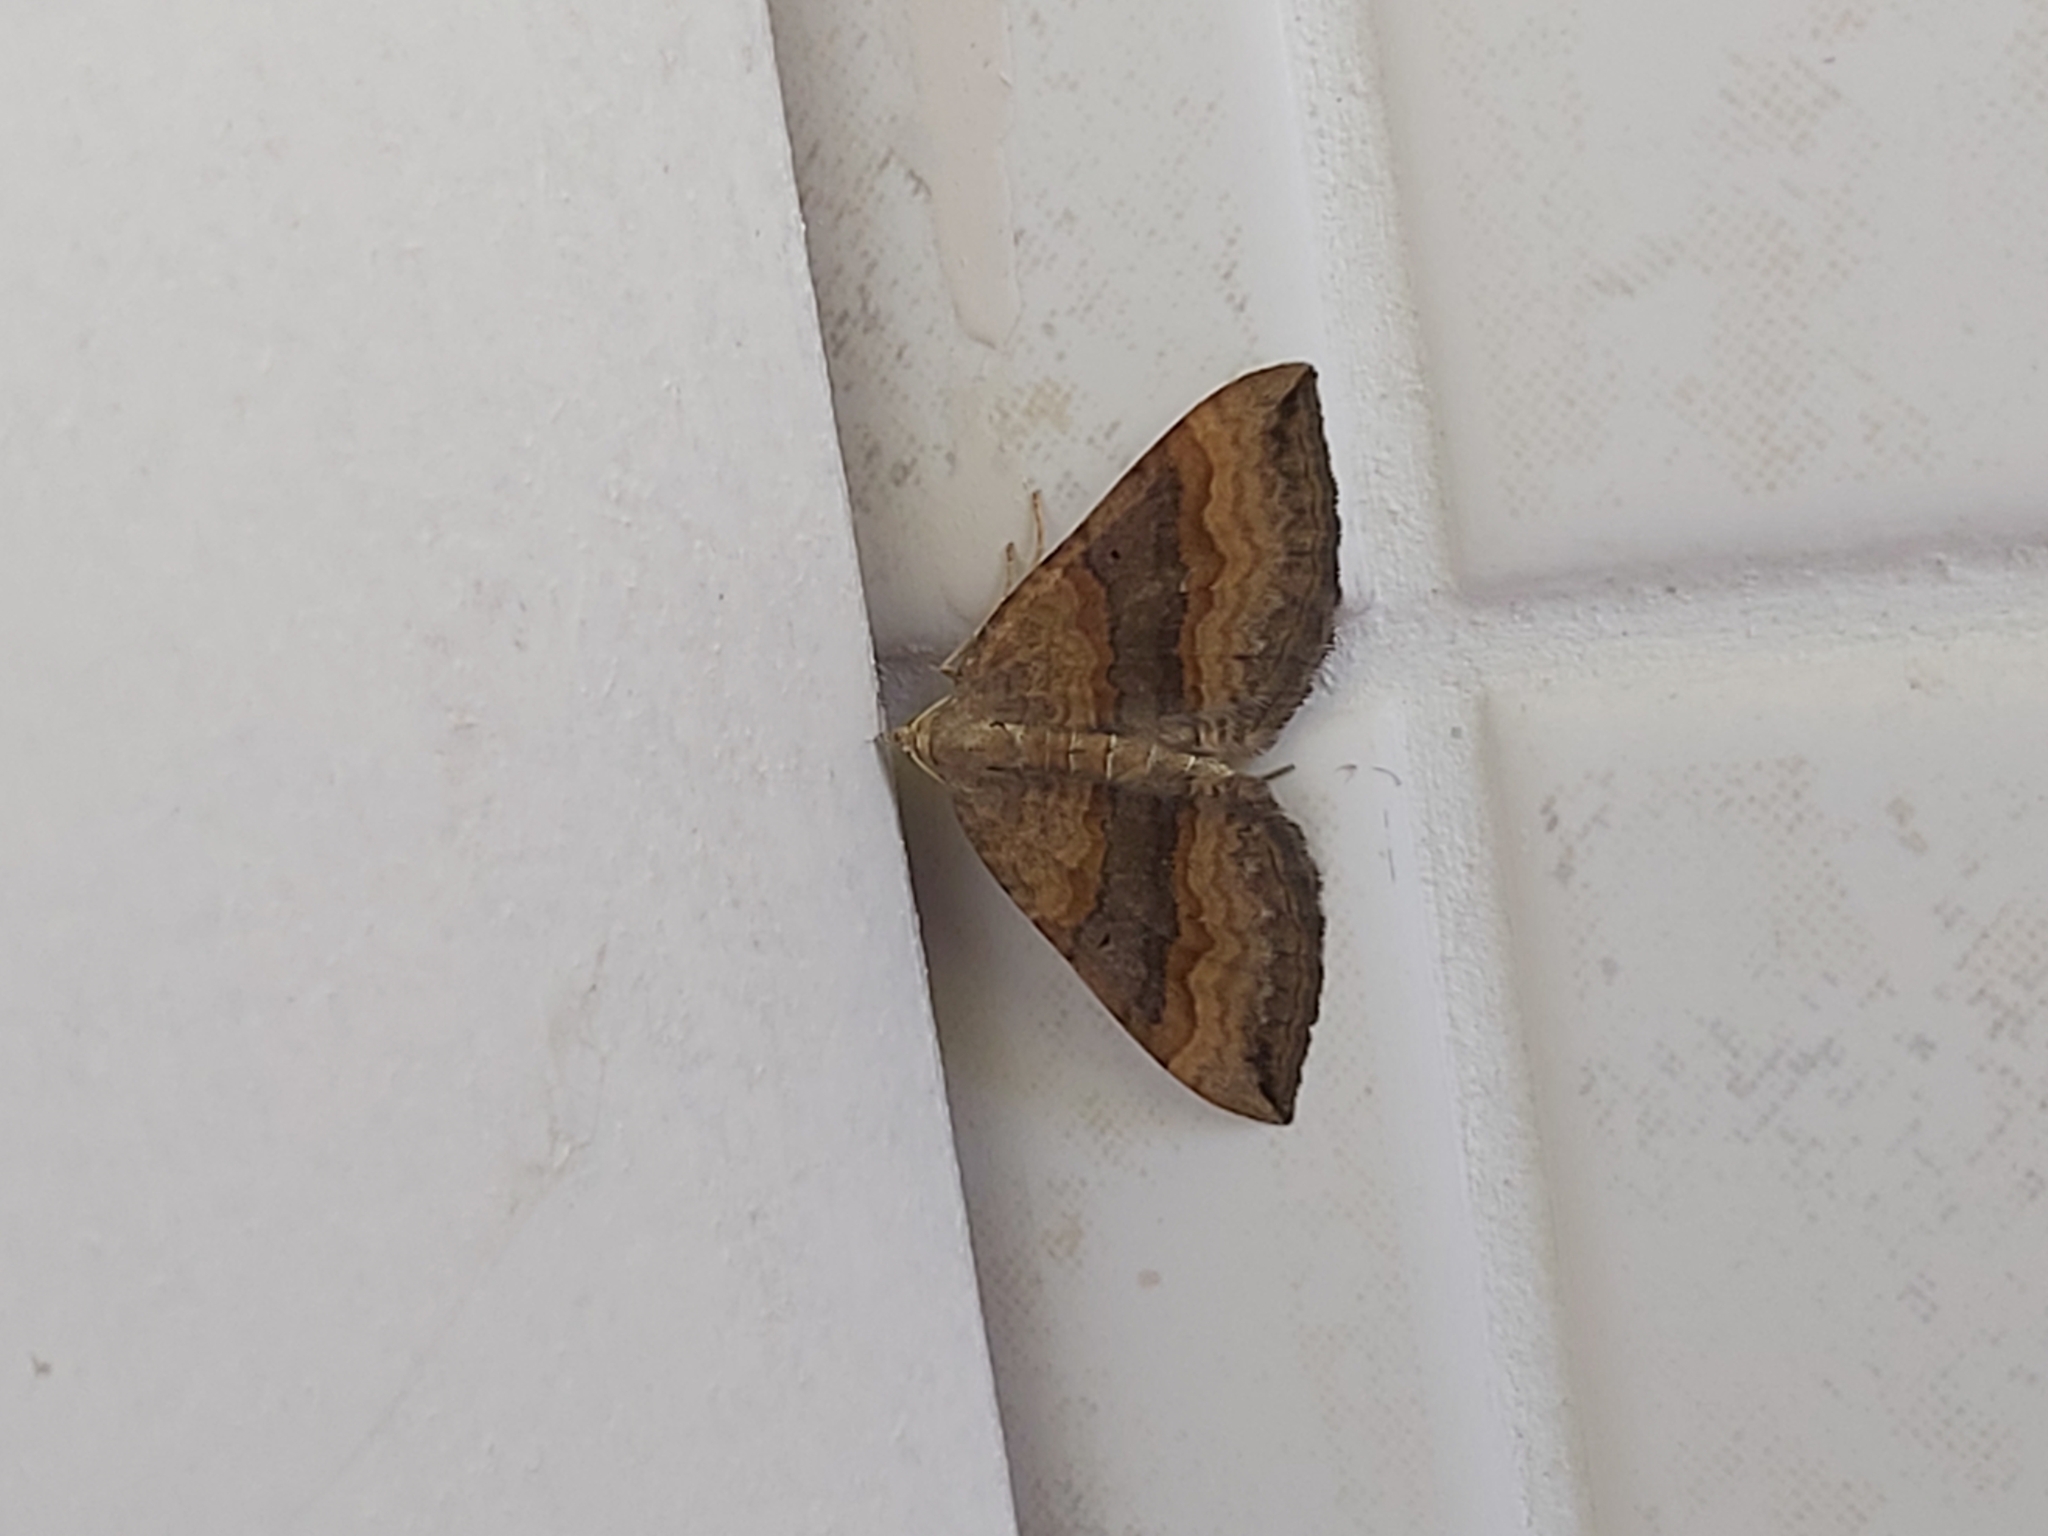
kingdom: Animalia
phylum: Arthropoda
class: Insecta
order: Lepidoptera
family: Geometridae
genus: Scotopteryx
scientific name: Scotopteryx chenopodiata
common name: Shaded broad-bar
